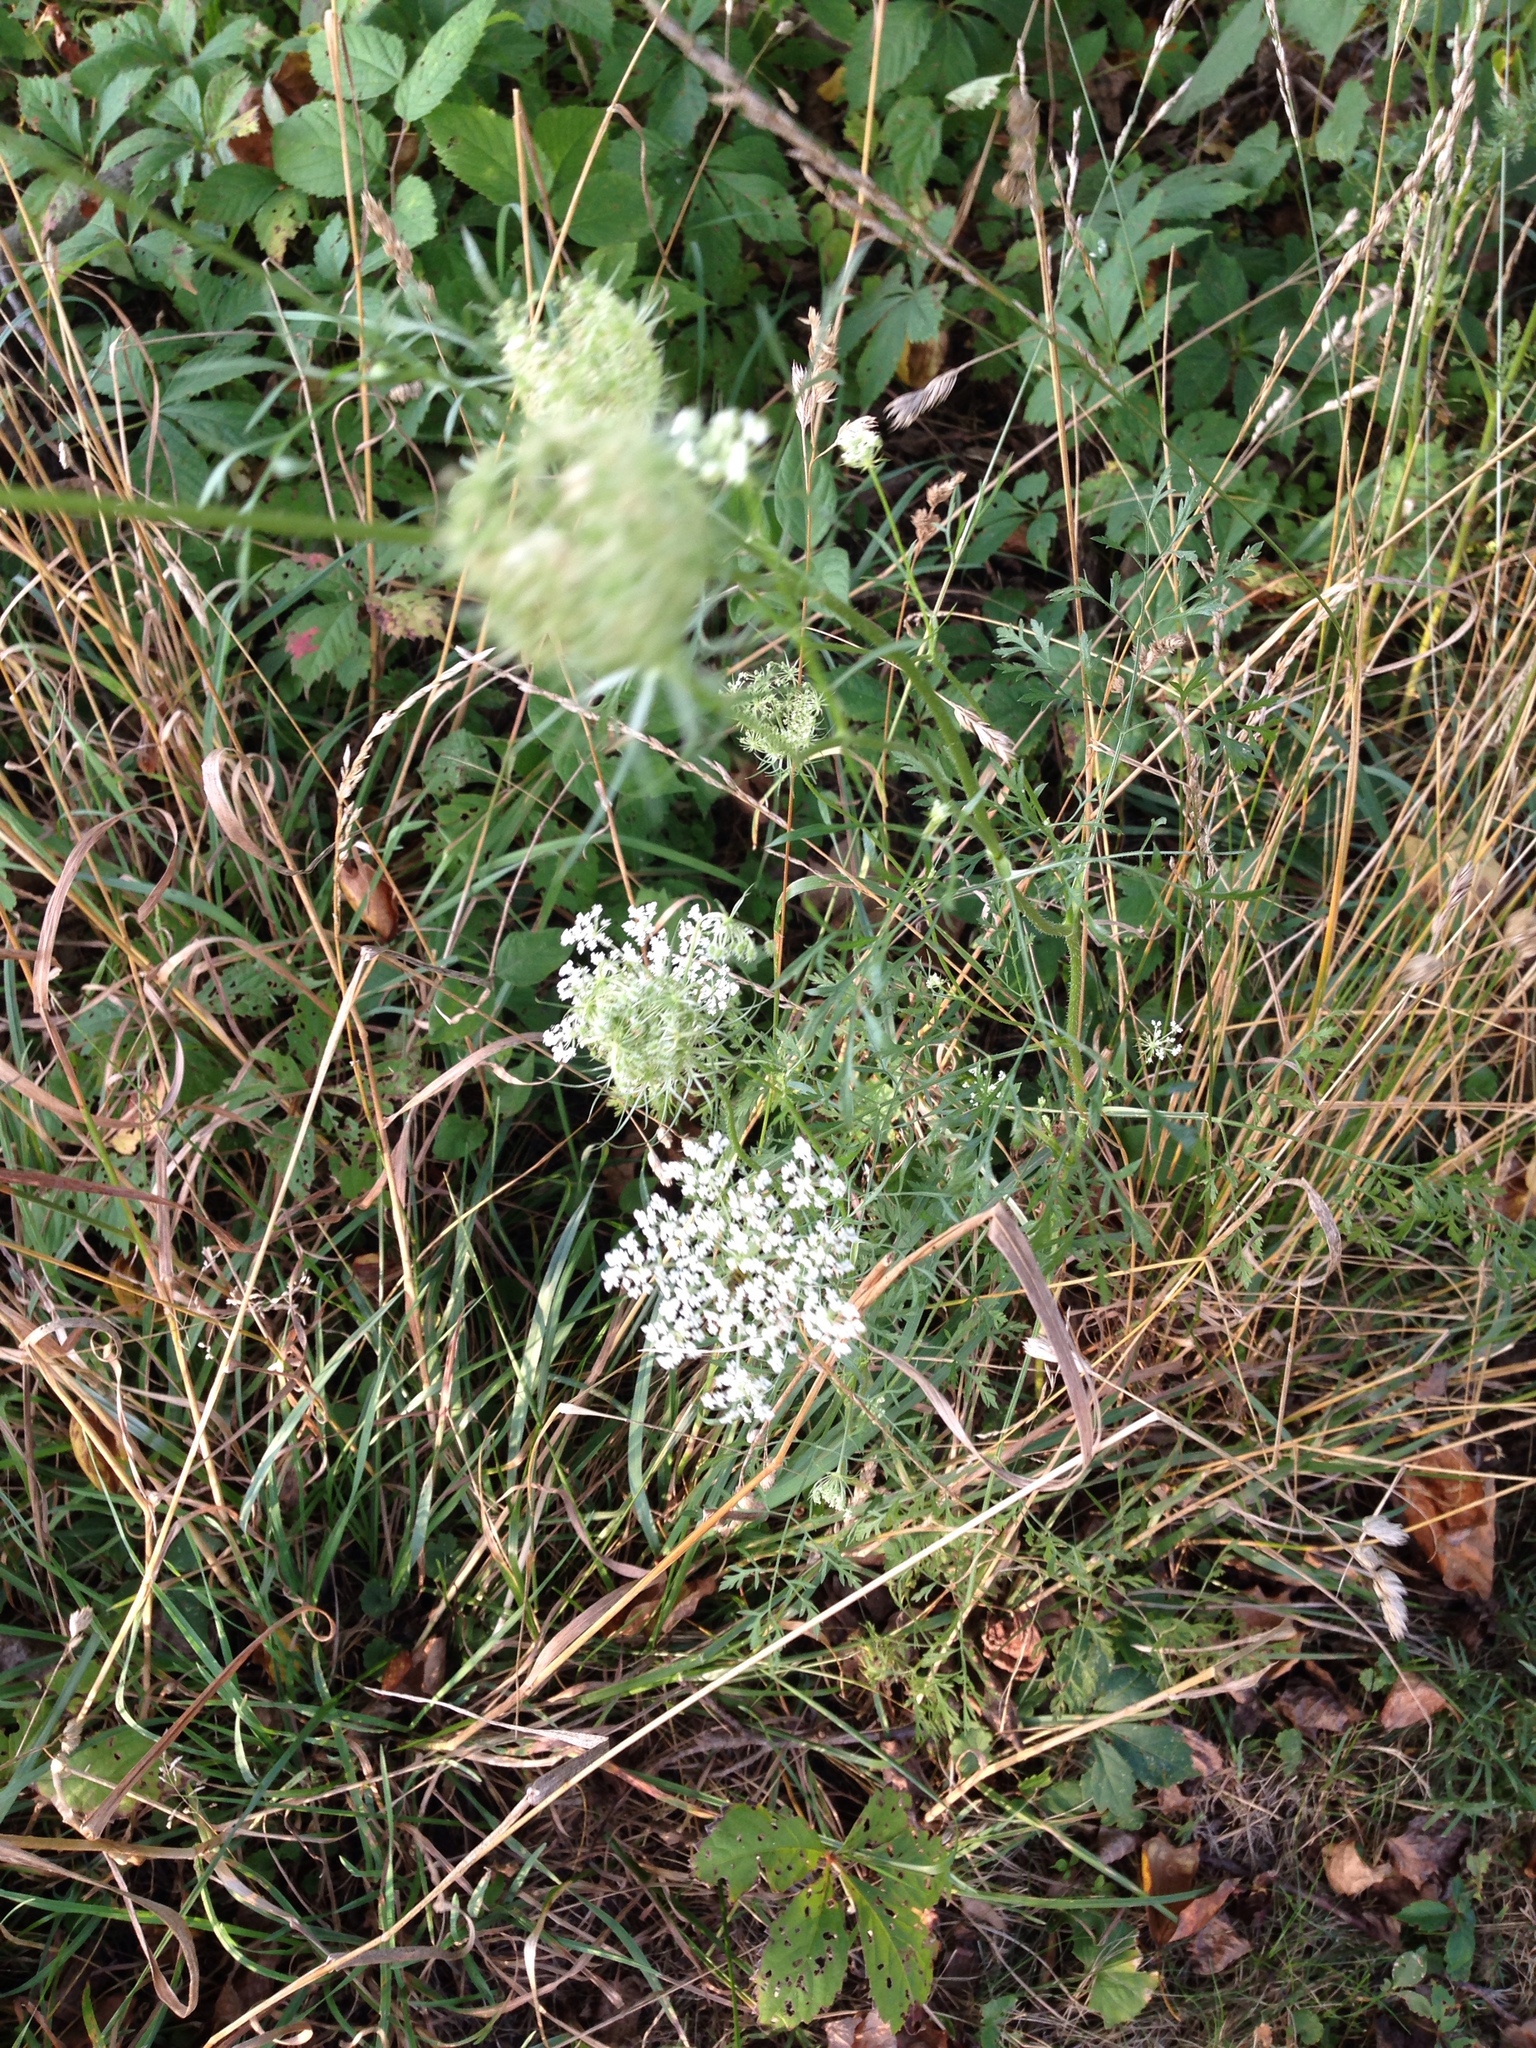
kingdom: Plantae
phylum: Tracheophyta
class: Magnoliopsida
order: Apiales
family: Apiaceae
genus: Daucus
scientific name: Daucus carota
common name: Wild carrot
